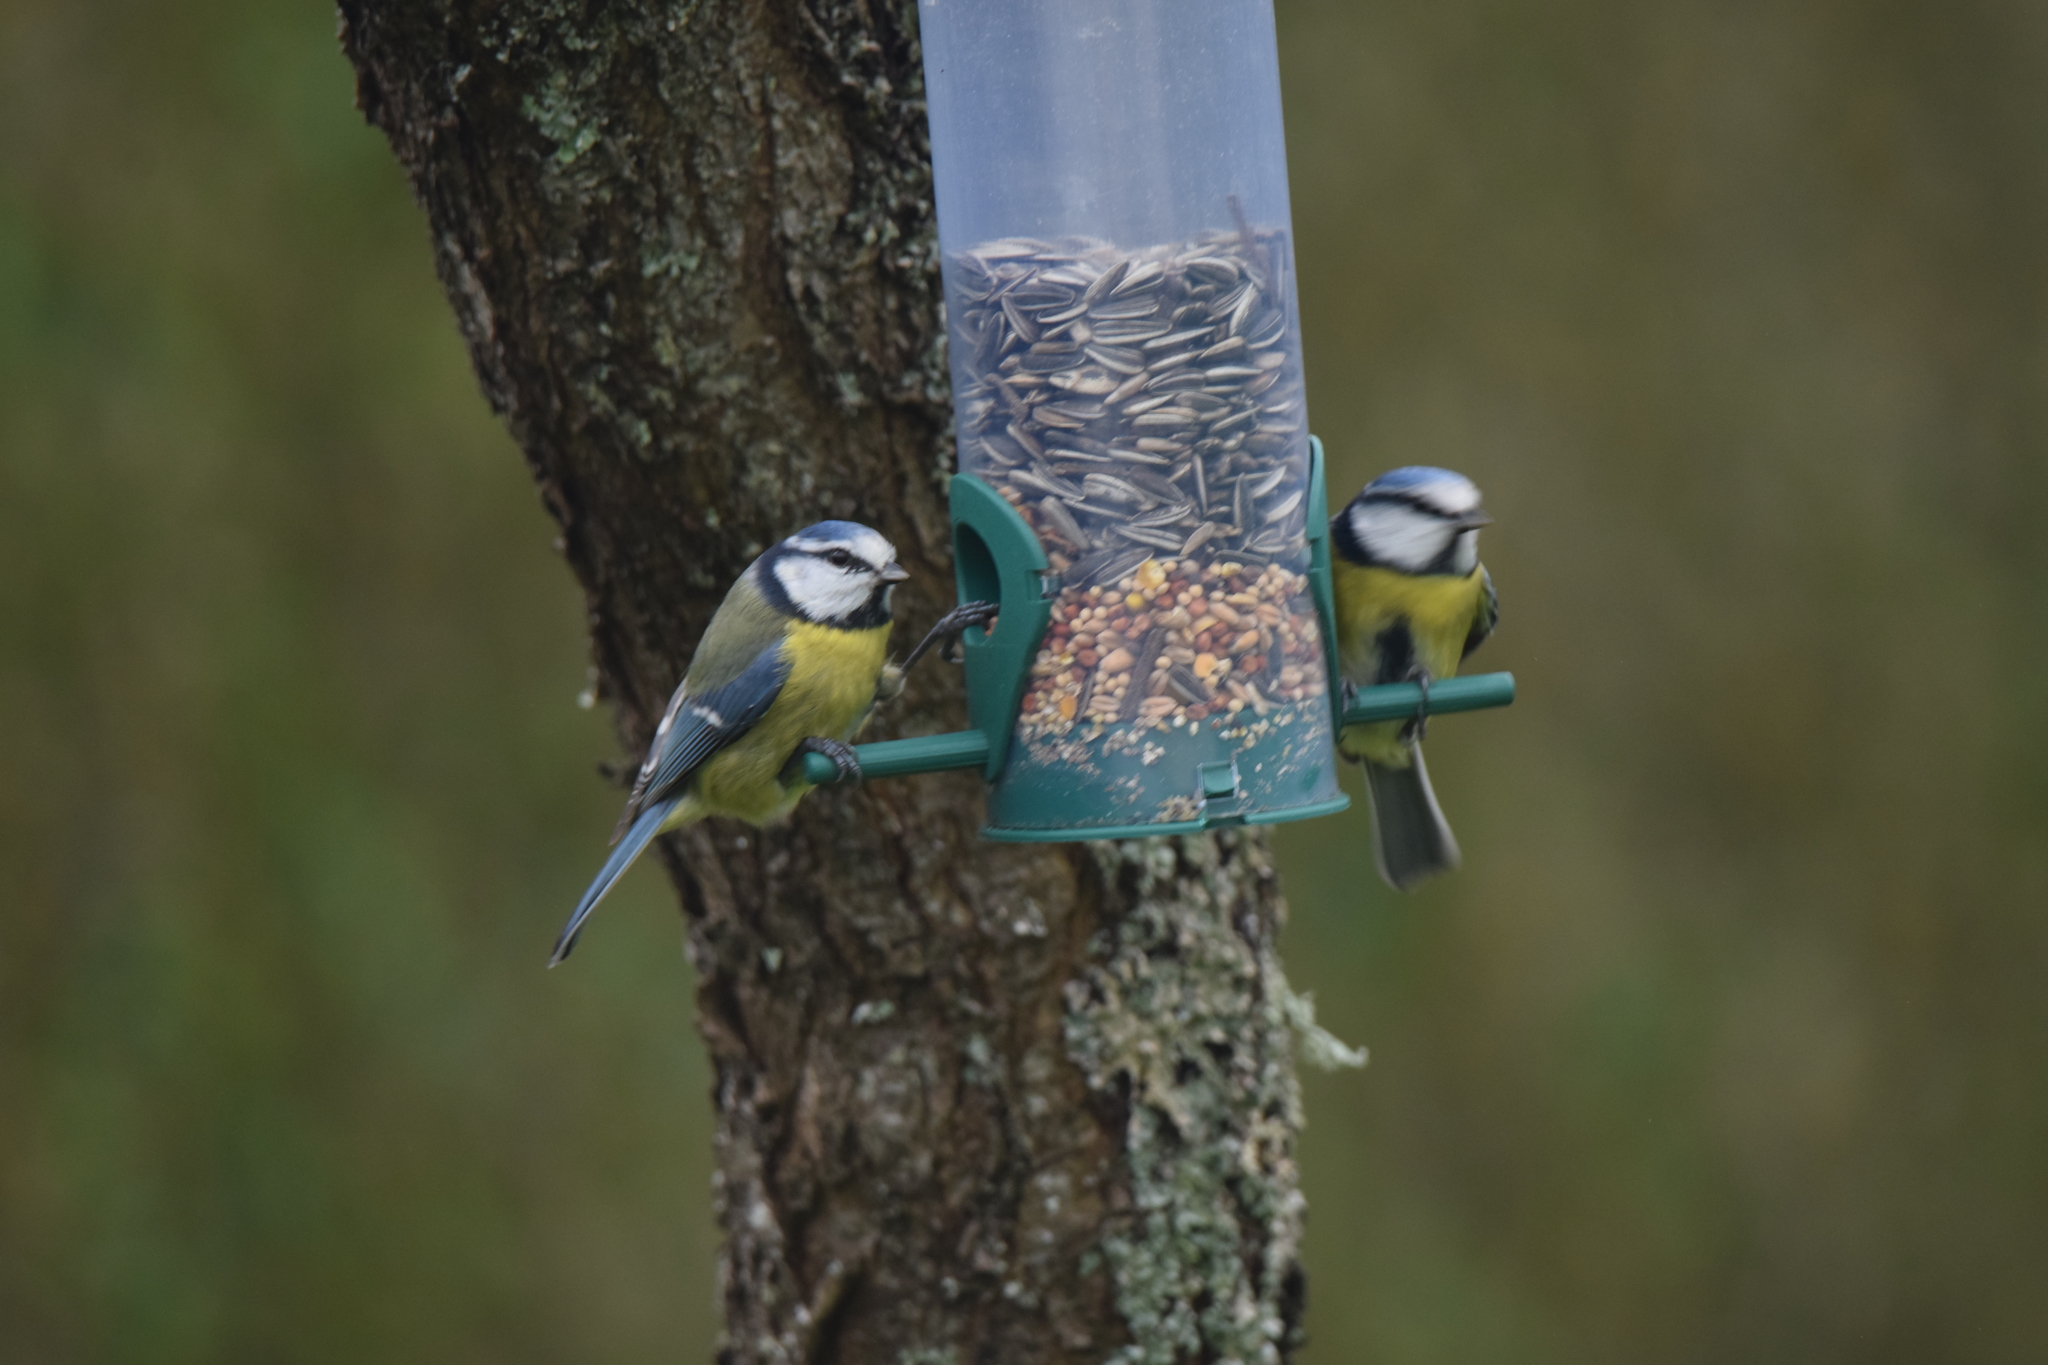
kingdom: Animalia
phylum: Chordata
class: Aves
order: Passeriformes
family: Paridae
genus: Cyanistes
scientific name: Cyanistes caeruleus
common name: Eurasian blue tit
